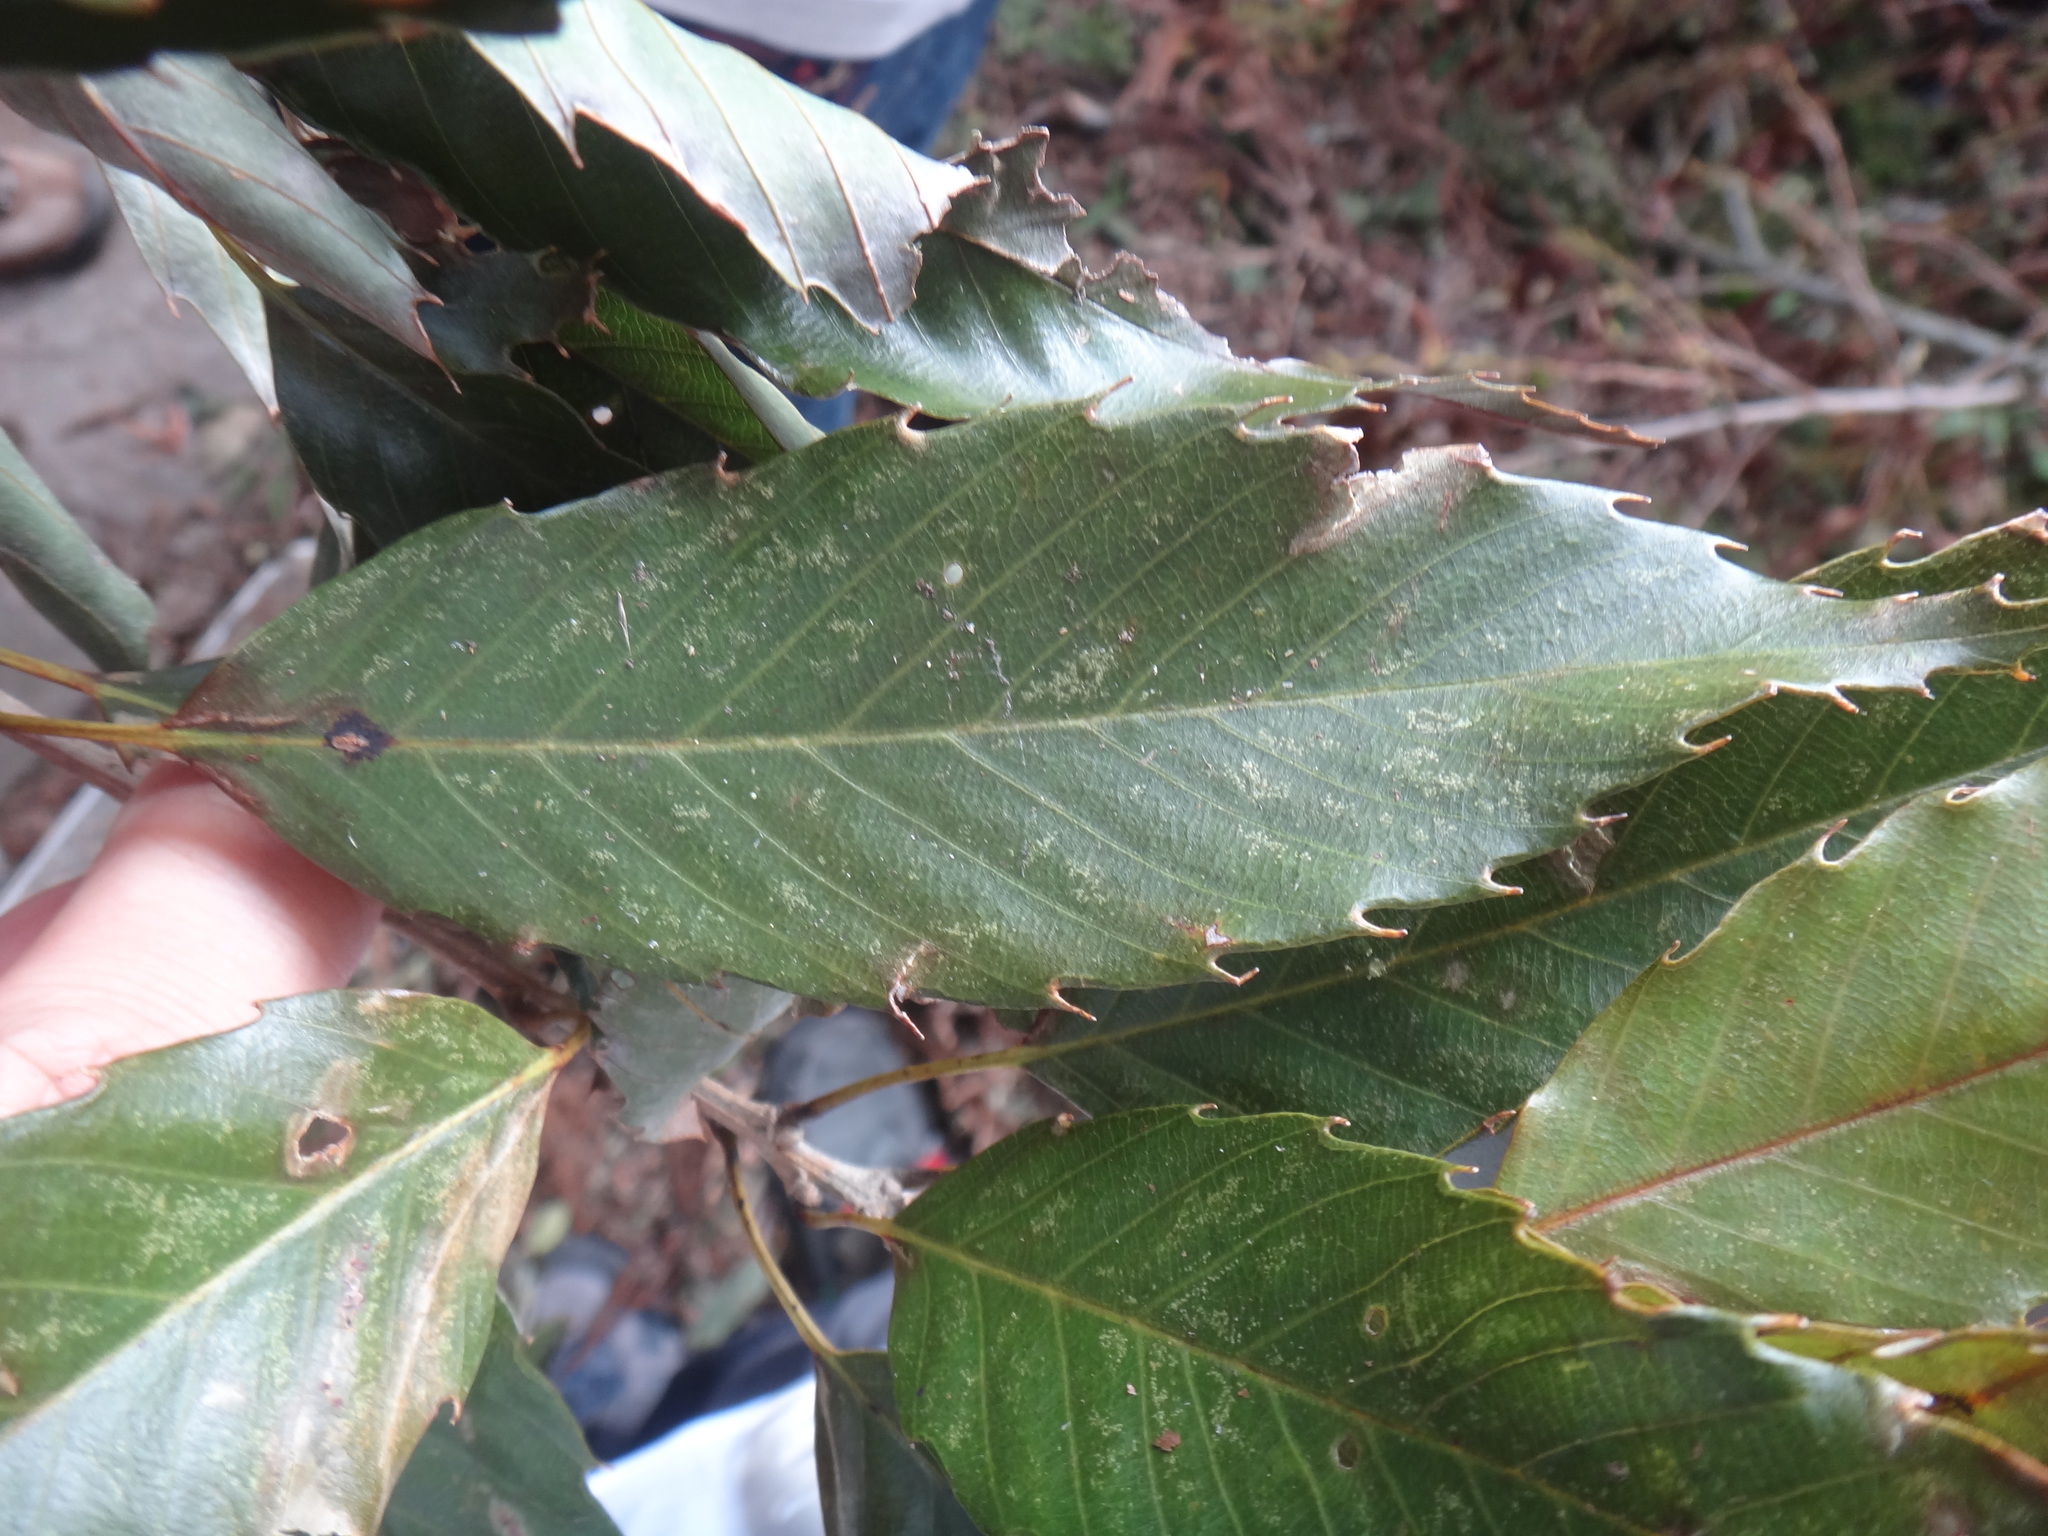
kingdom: Plantae
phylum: Tracheophyta
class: Magnoliopsida
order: Fagales
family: Fagaceae
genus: Quercus
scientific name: Quercus stenophylloides
